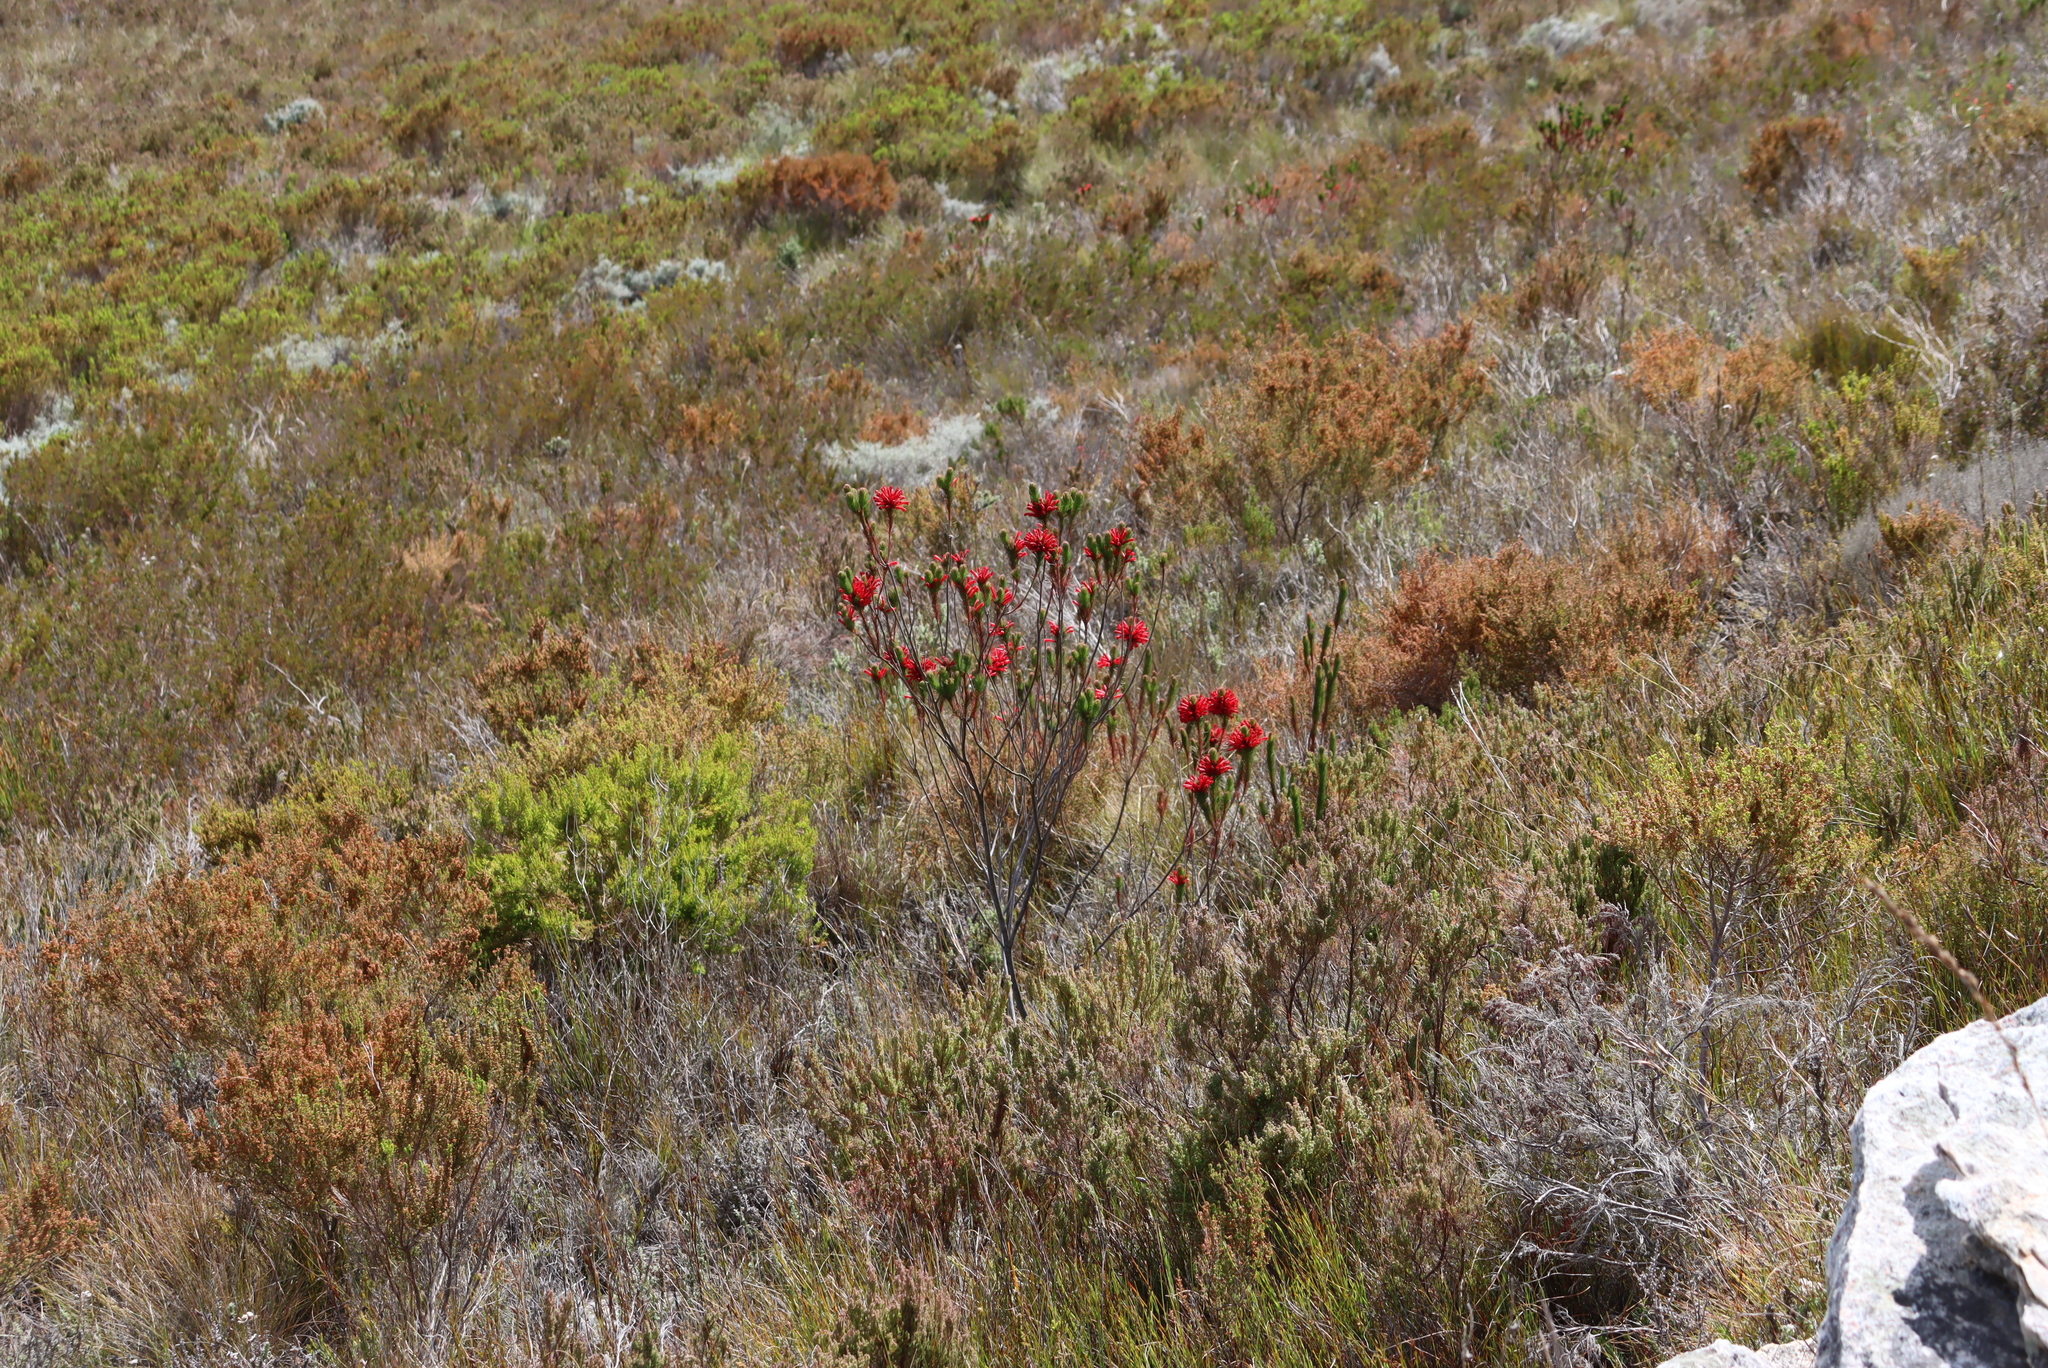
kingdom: Plantae
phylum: Tracheophyta
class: Magnoliopsida
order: Ericales
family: Ericaceae
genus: Erica
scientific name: Erica vestita
